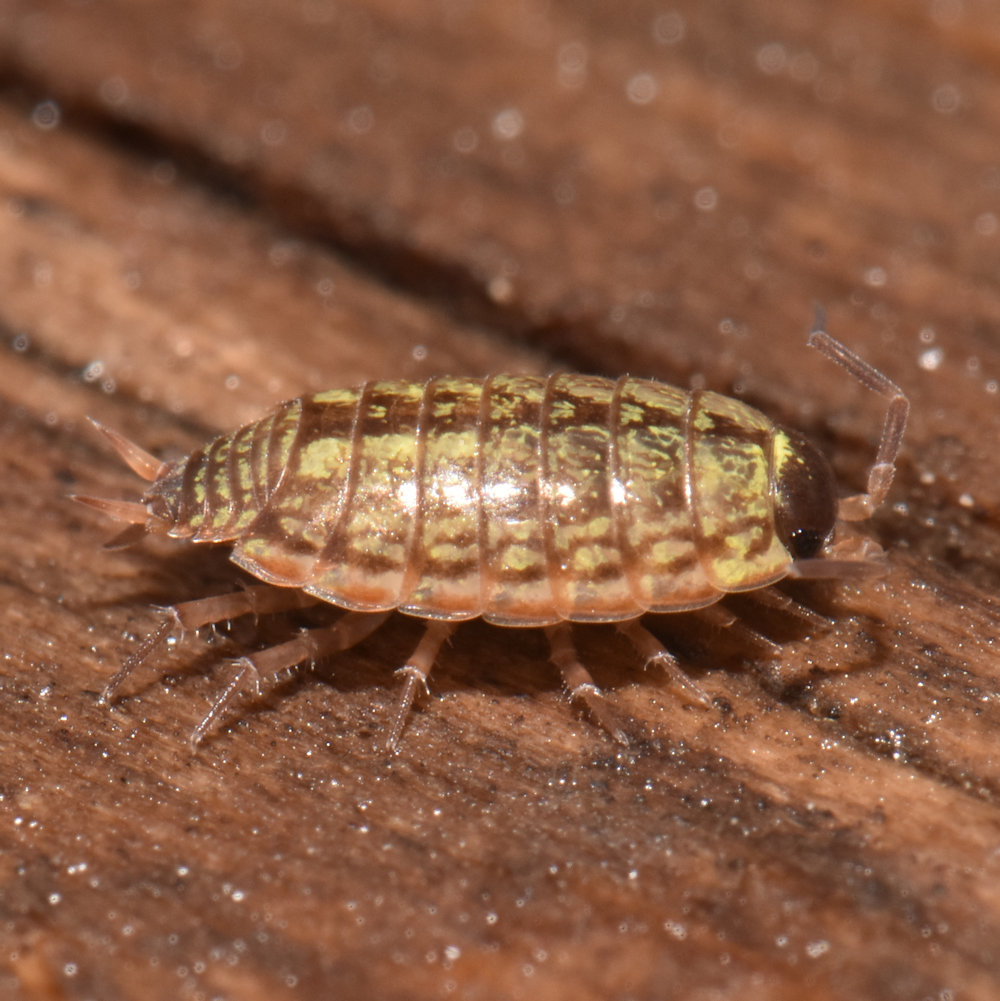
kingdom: Animalia
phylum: Arthropoda
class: Malacostraca
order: Isopoda
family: Philosciidae
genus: Philoscia
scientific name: Philoscia muscorum
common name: Common striped woodlouse
